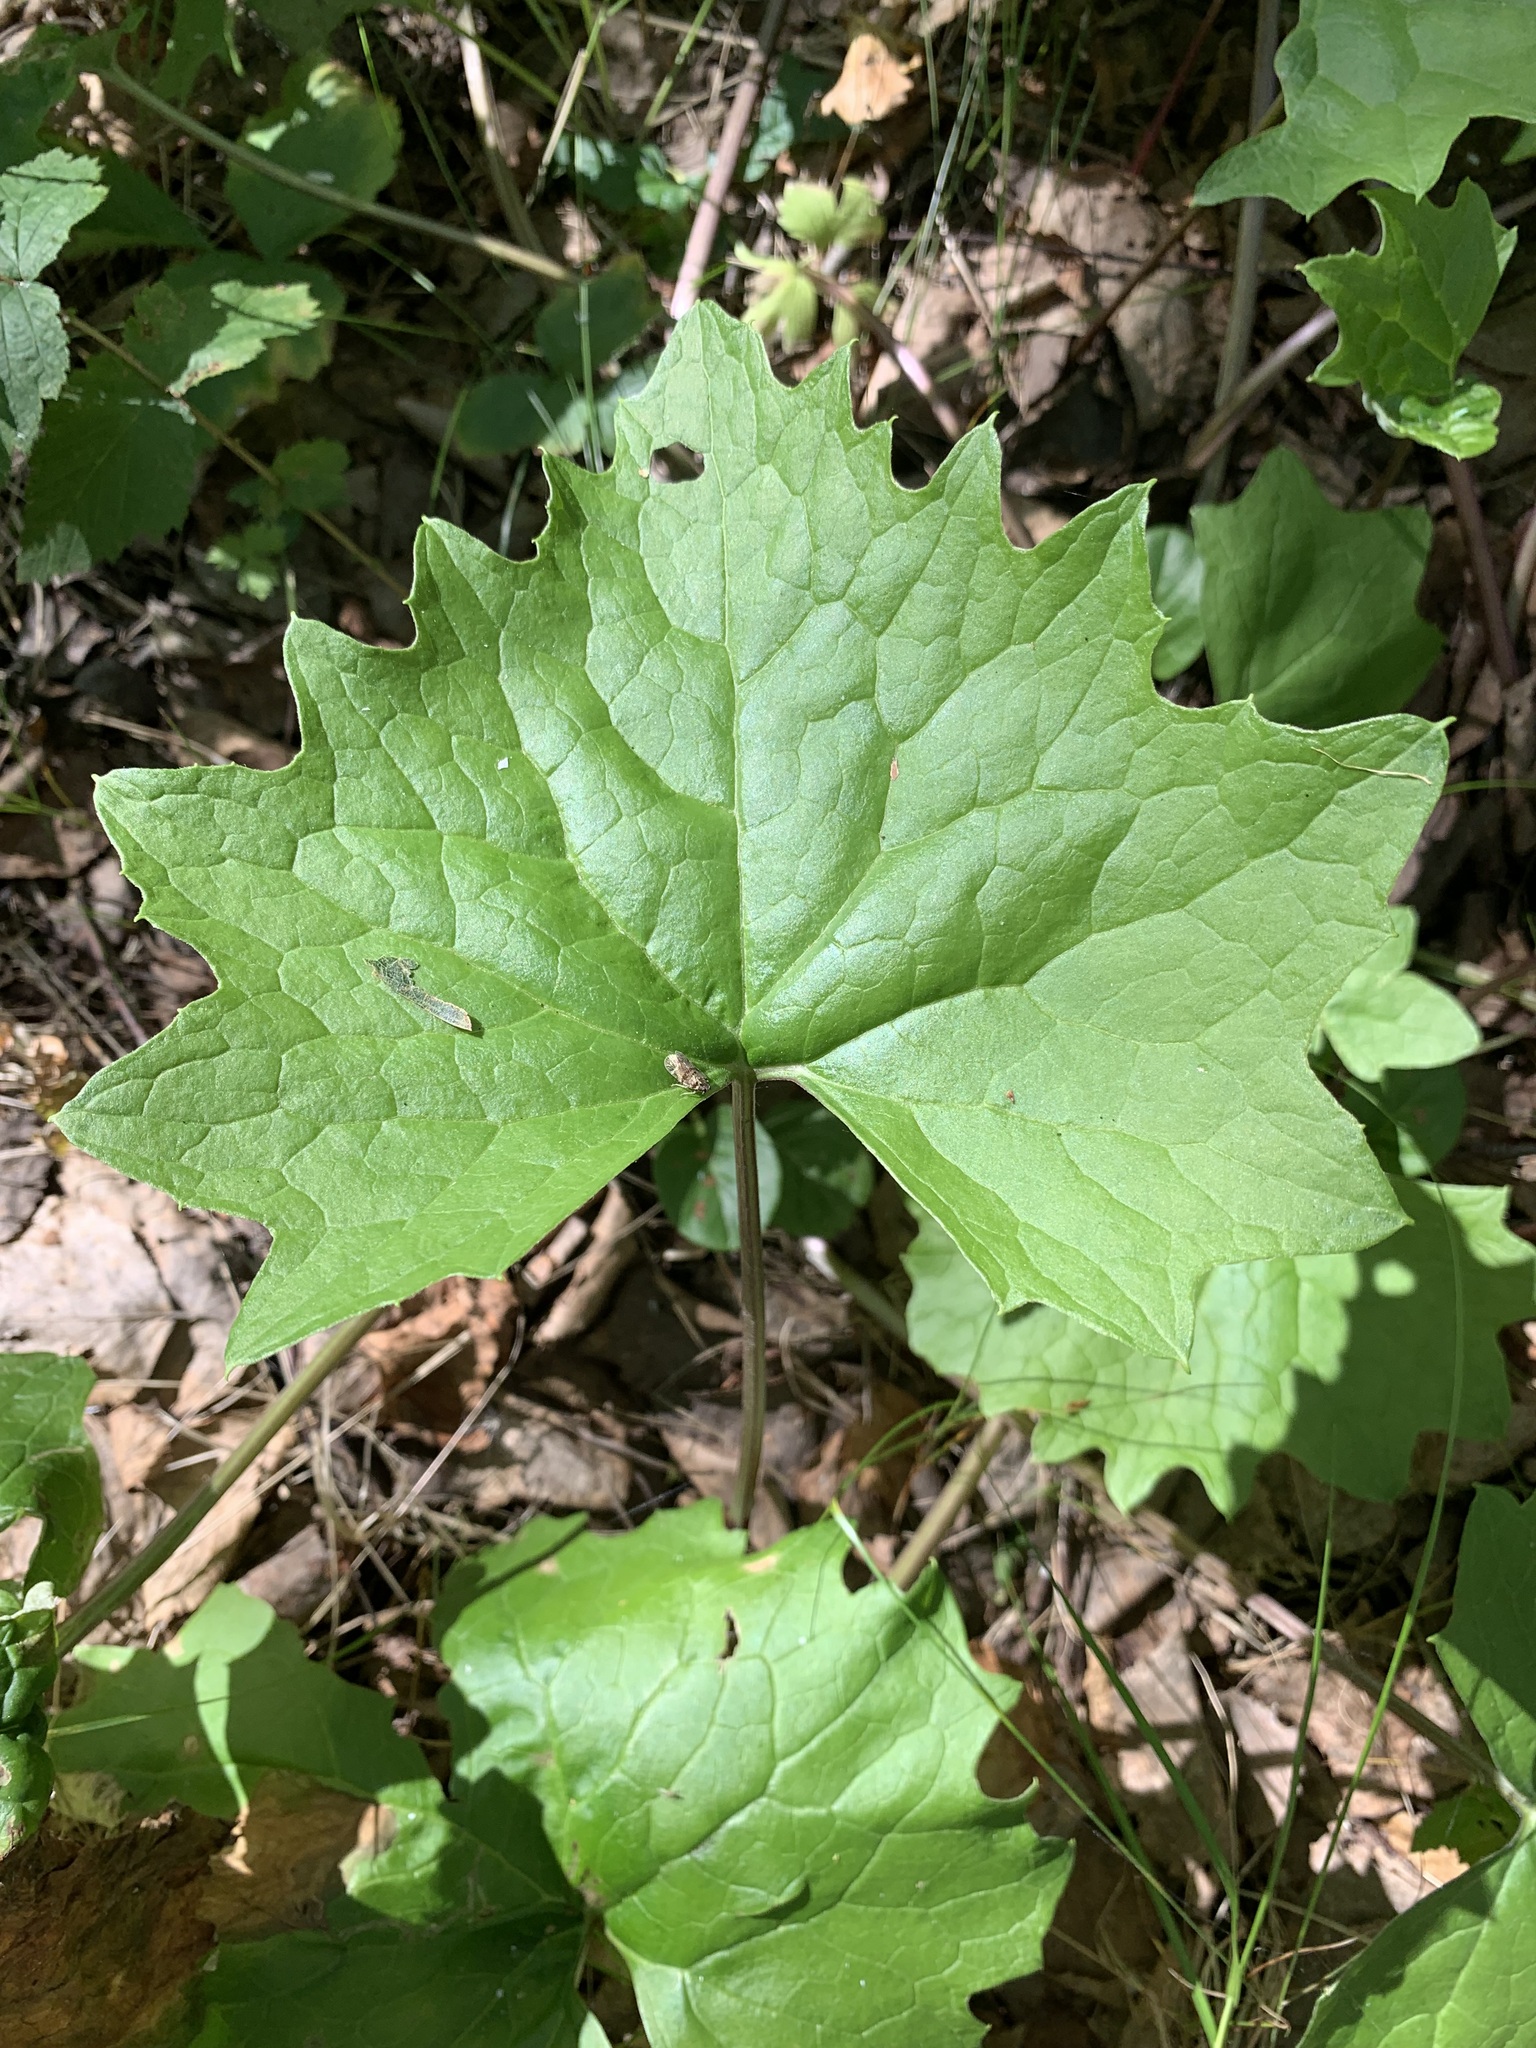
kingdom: Plantae
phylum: Tracheophyta
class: Magnoliopsida
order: Asterales
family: Asteraceae
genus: Petasites
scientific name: Petasites frigidus
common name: Arctic butterbur
